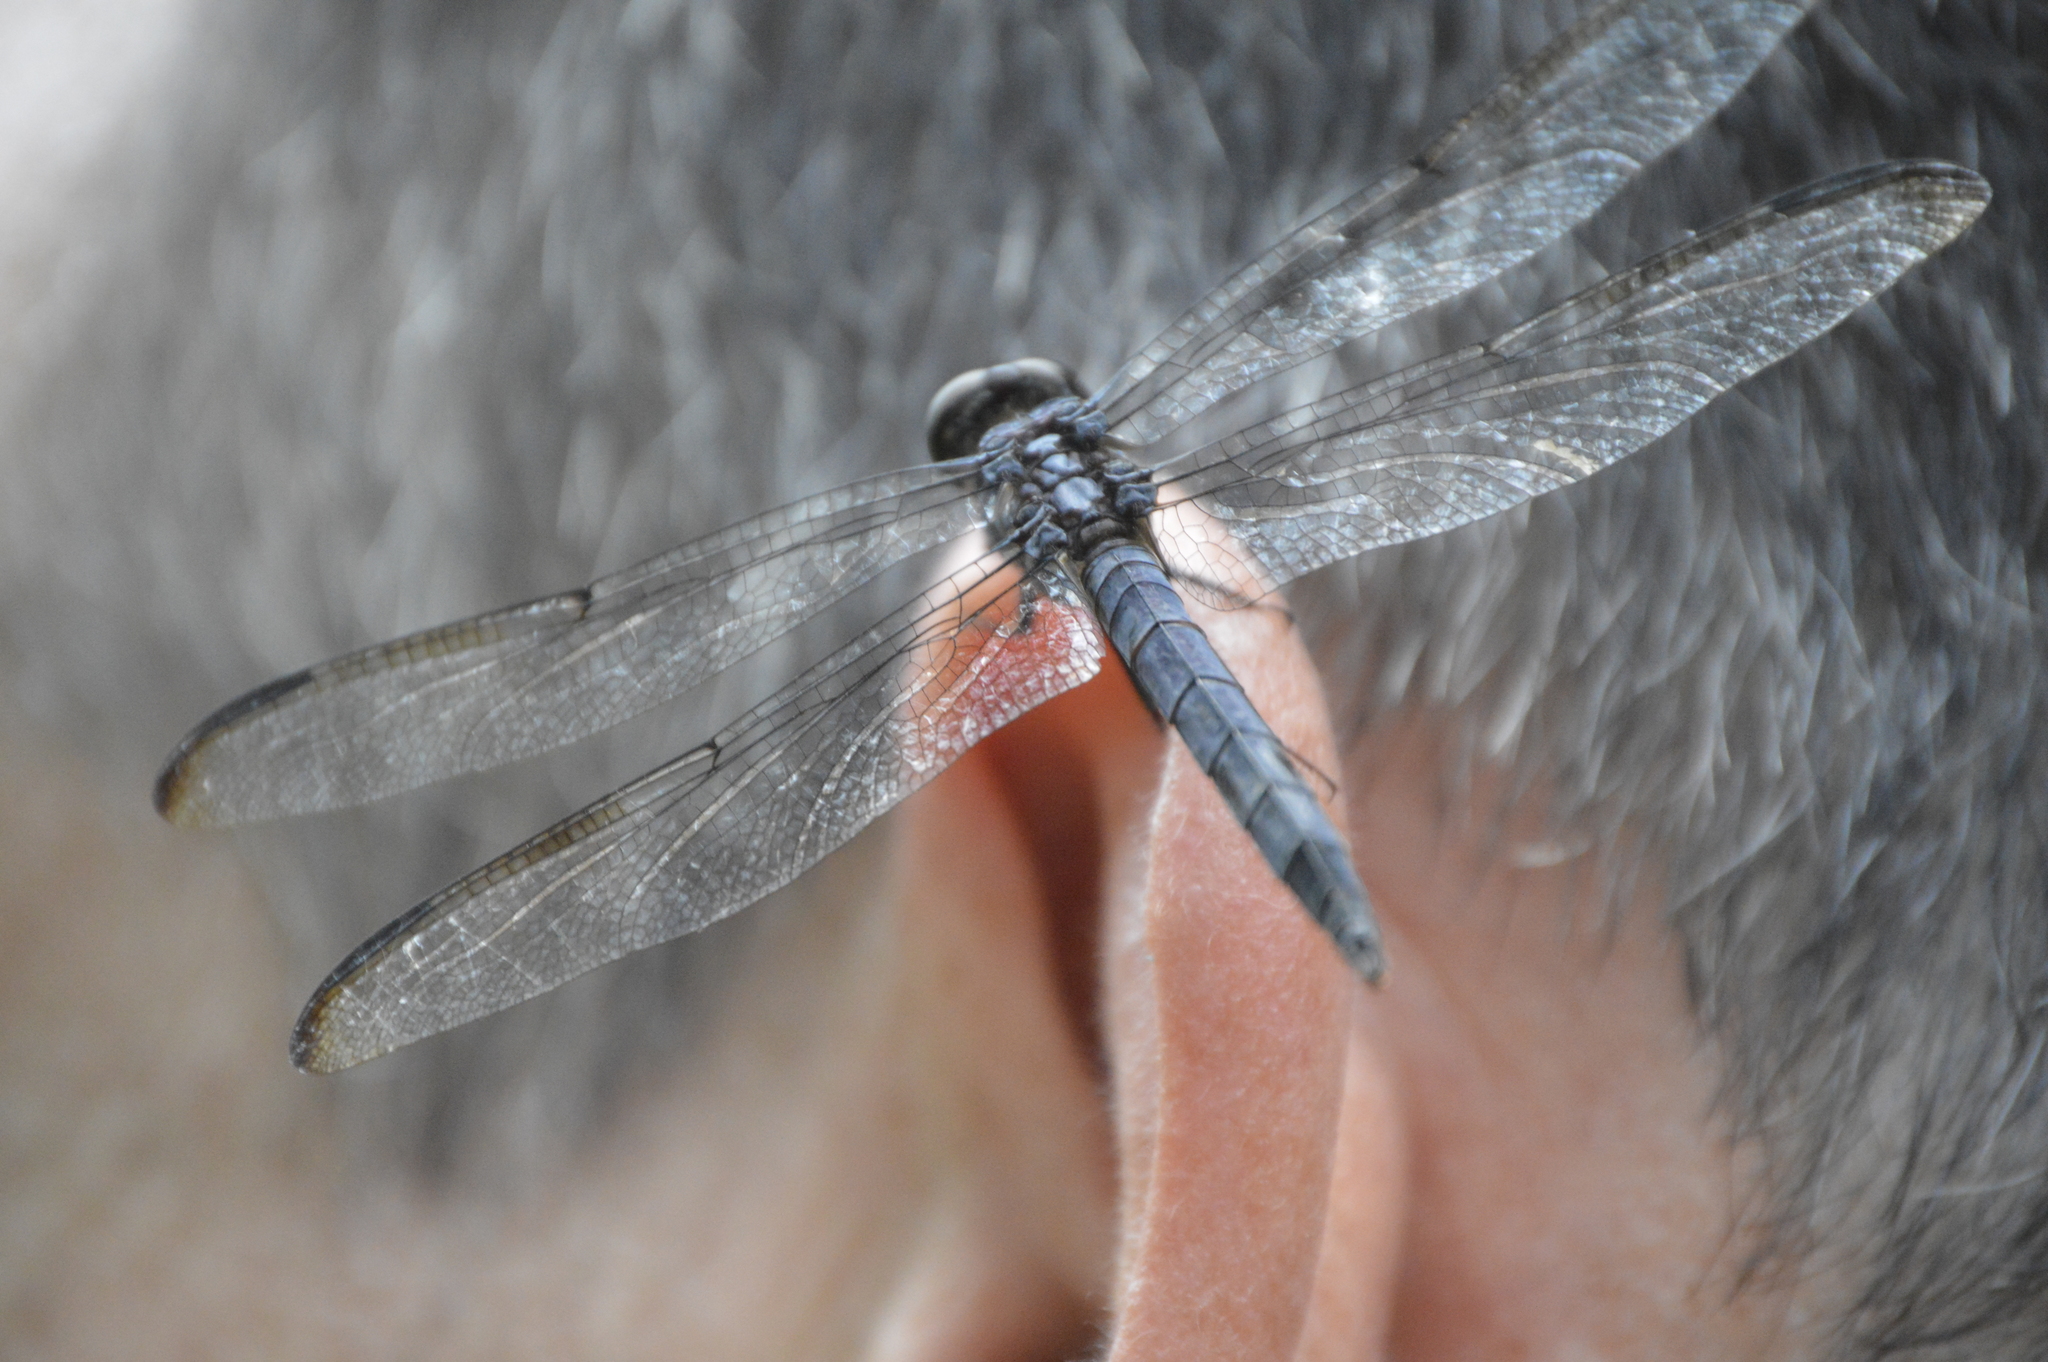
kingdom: Animalia
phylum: Arthropoda
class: Insecta
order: Odonata
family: Libellulidae
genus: Libellula
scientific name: Libellula incesta
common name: Slaty skimmer
